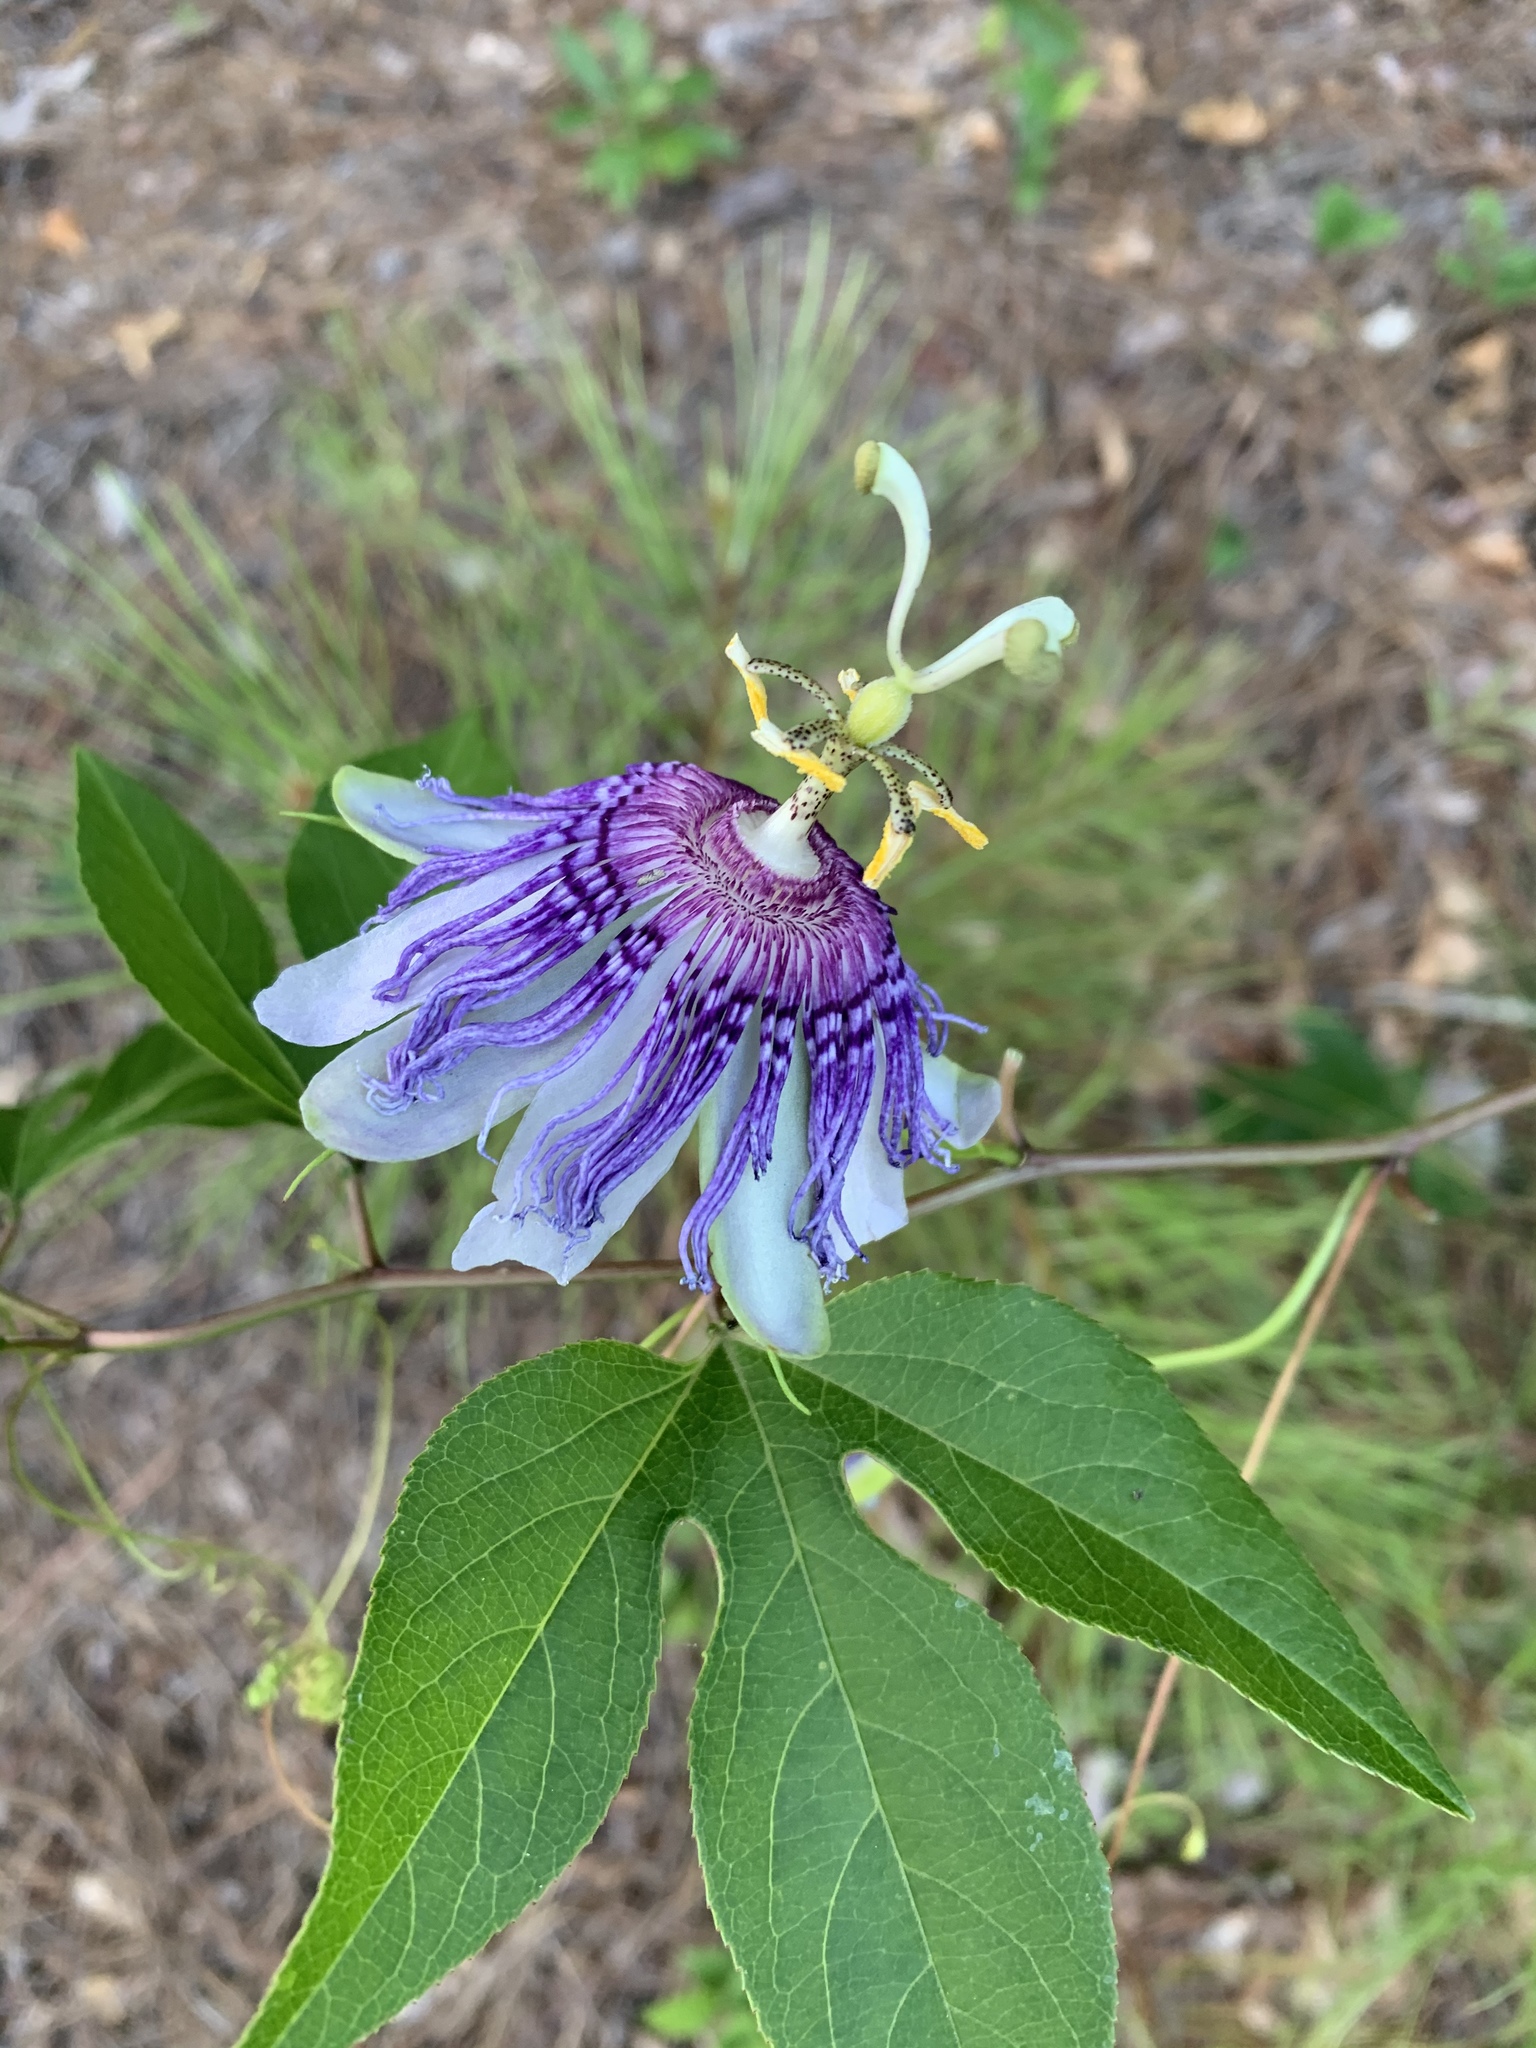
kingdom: Plantae
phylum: Tracheophyta
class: Magnoliopsida
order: Malpighiales
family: Passifloraceae
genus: Passiflora
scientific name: Passiflora incarnata
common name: Apricot-vine
